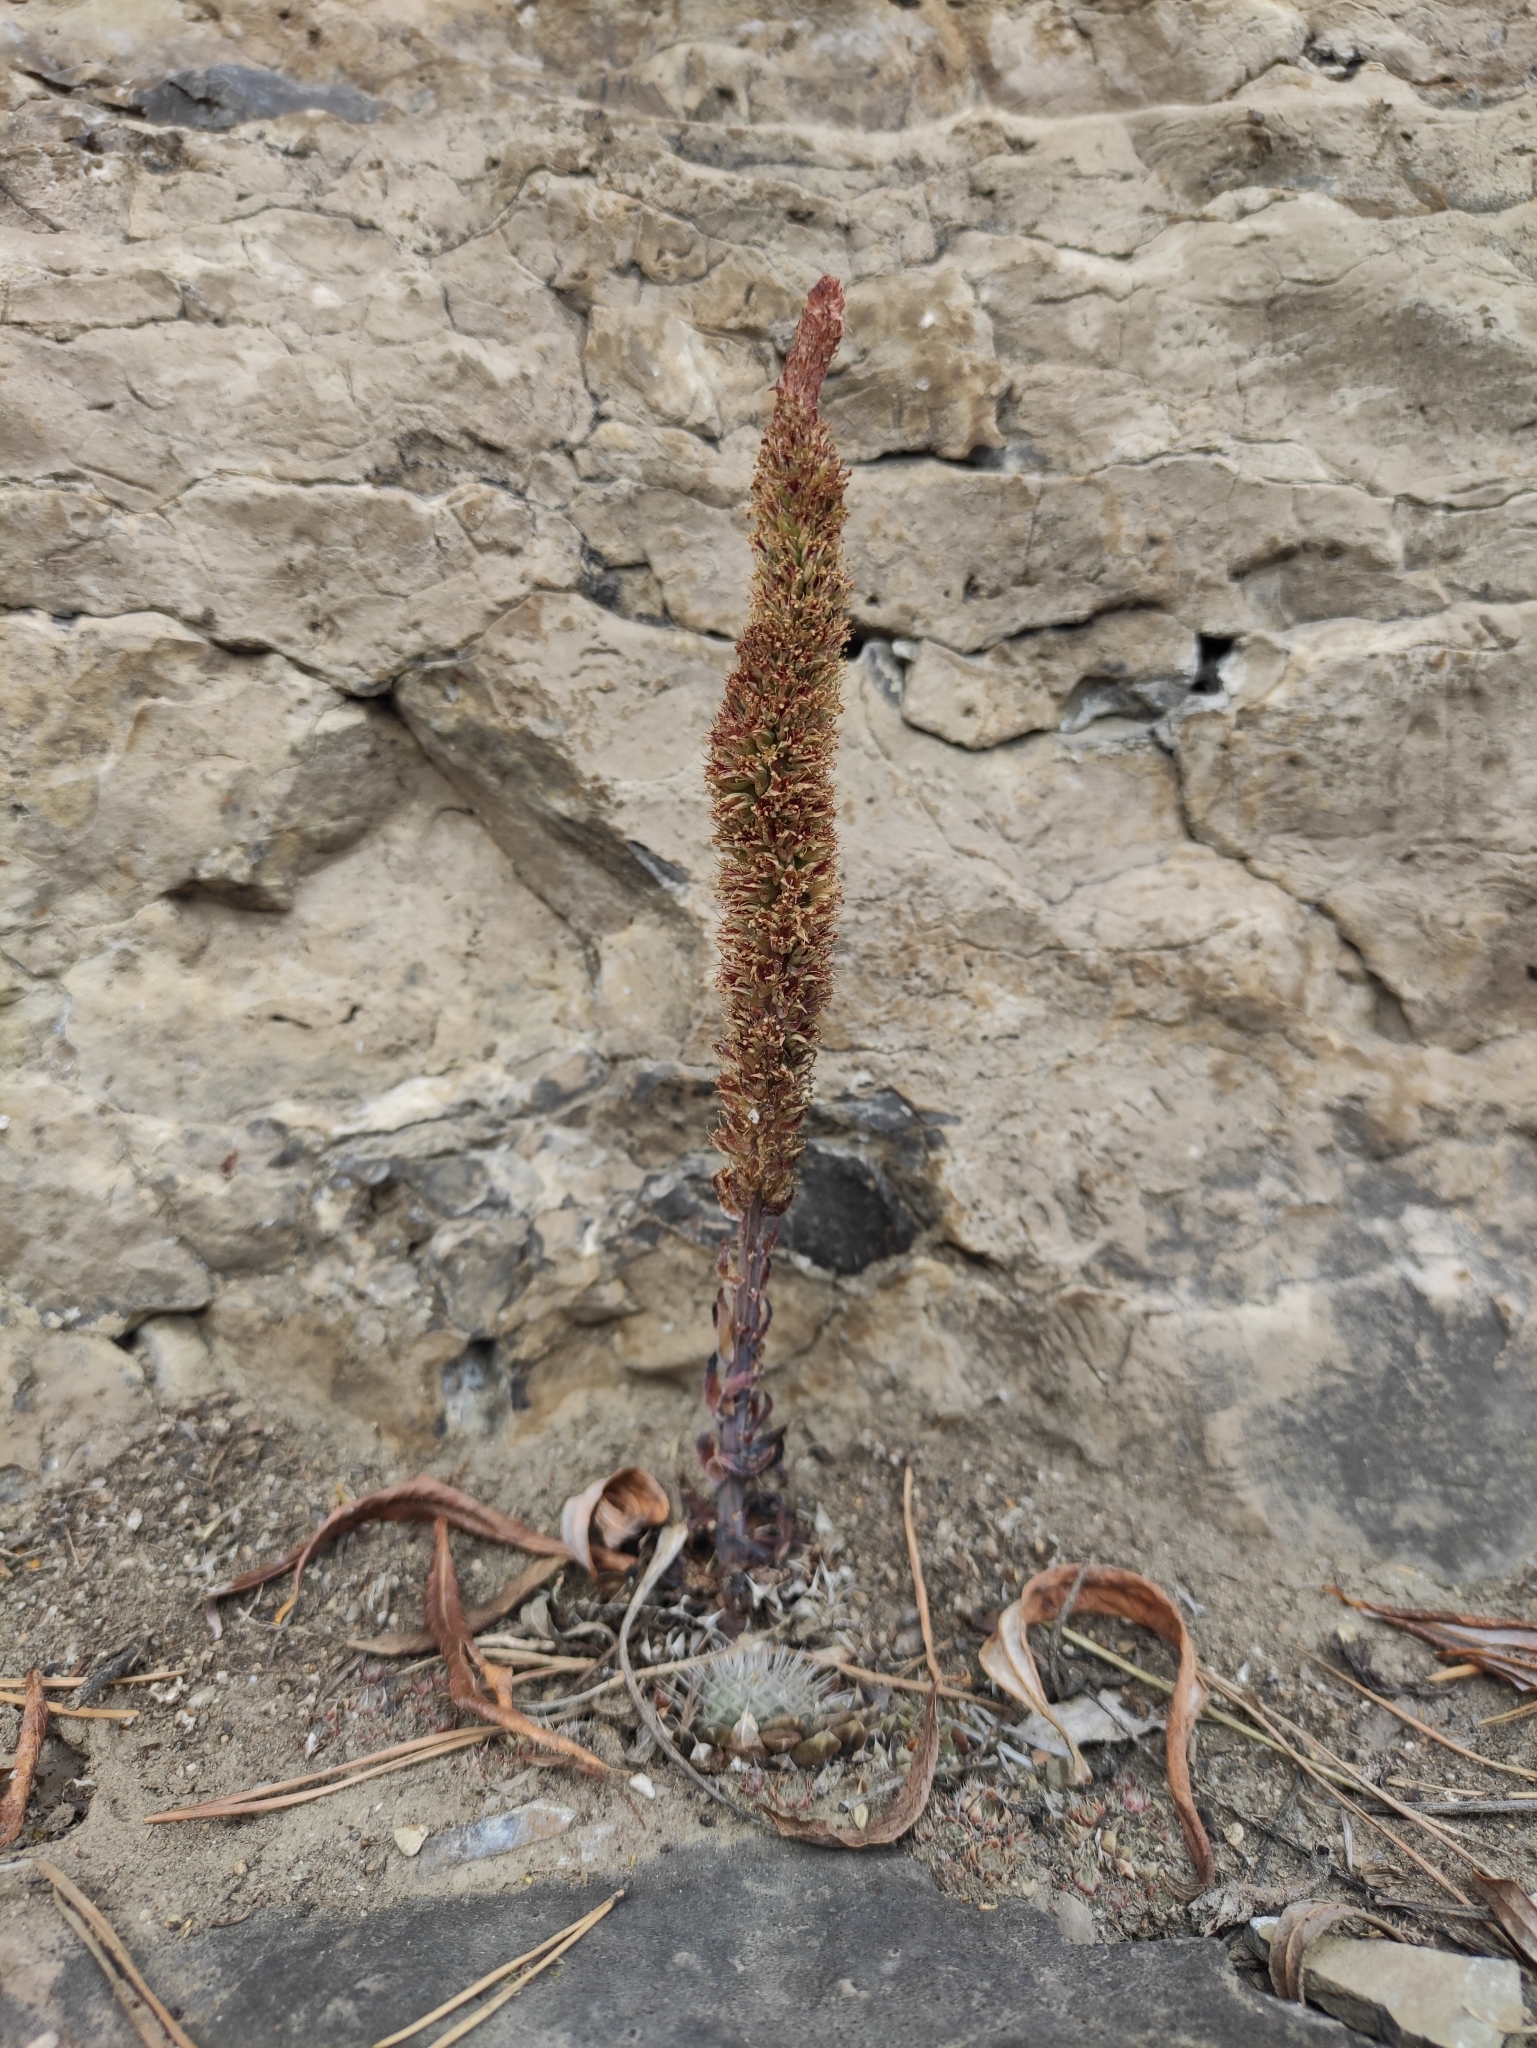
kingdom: Plantae
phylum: Tracheophyta
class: Magnoliopsida
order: Saxifragales
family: Crassulaceae
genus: Orostachys
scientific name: Orostachys spinosa
